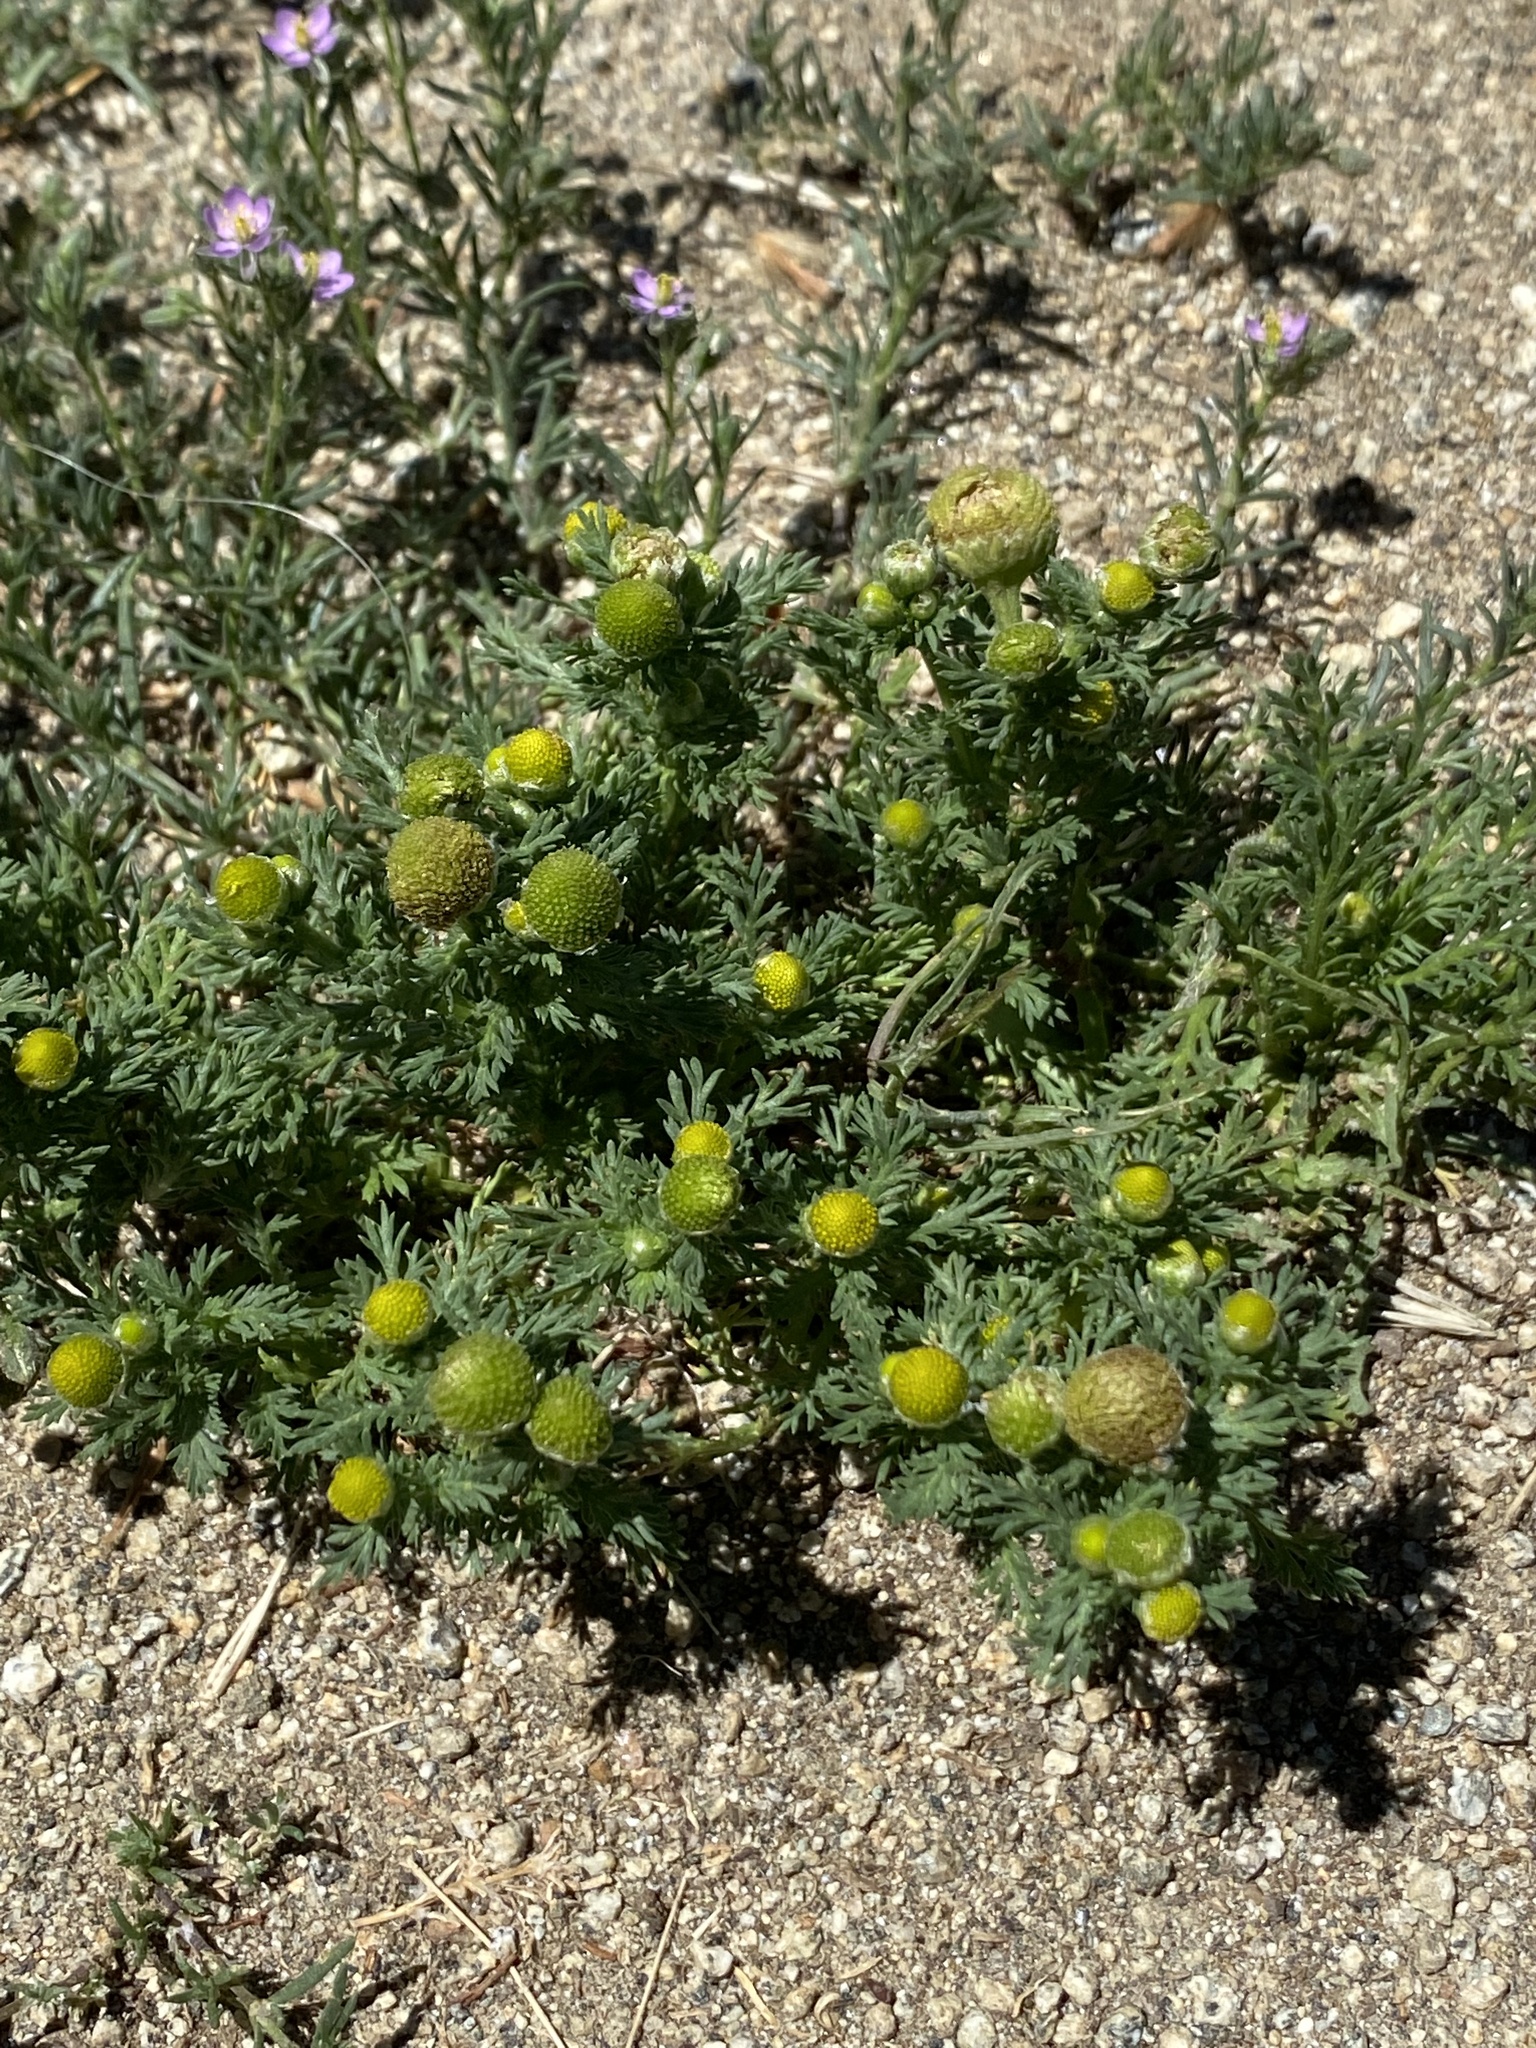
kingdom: Plantae
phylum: Tracheophyta
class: Magnoliopsida
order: Asterales
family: Asteraceae
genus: Matricaria
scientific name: Matricaria discoidea
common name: Disc mayweed
